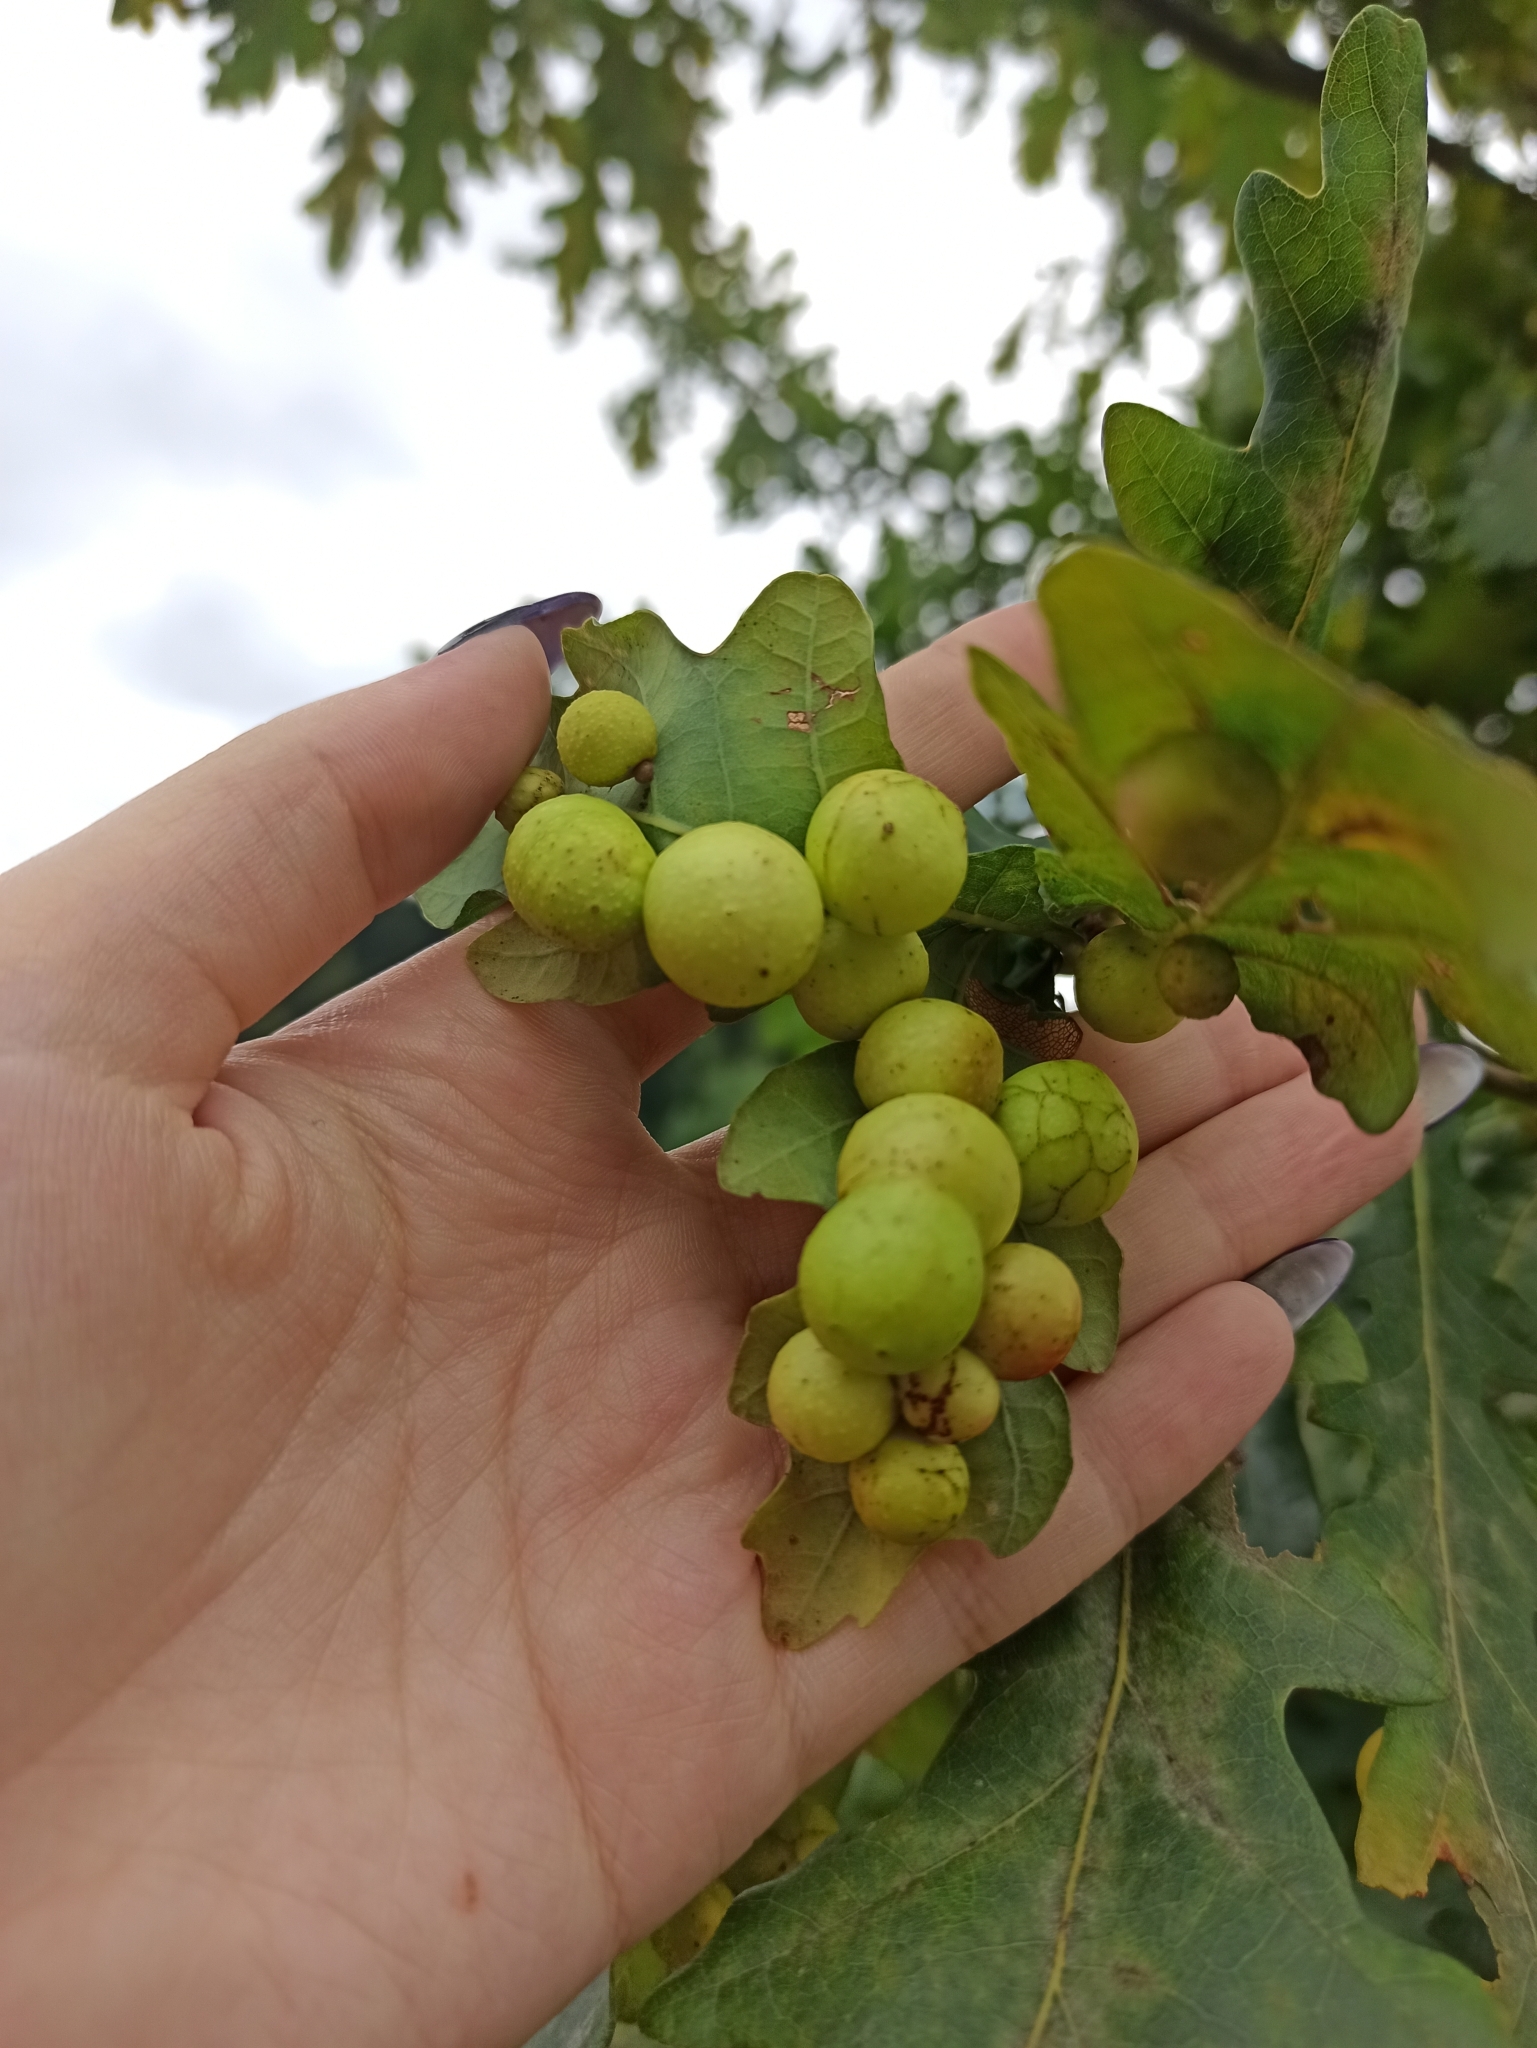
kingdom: Animalia
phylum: Arthropoda
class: Insecta
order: Hymenoptera
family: Cynipidae
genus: Cynips
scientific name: Cynips quercusfolii
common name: Cherry gall
